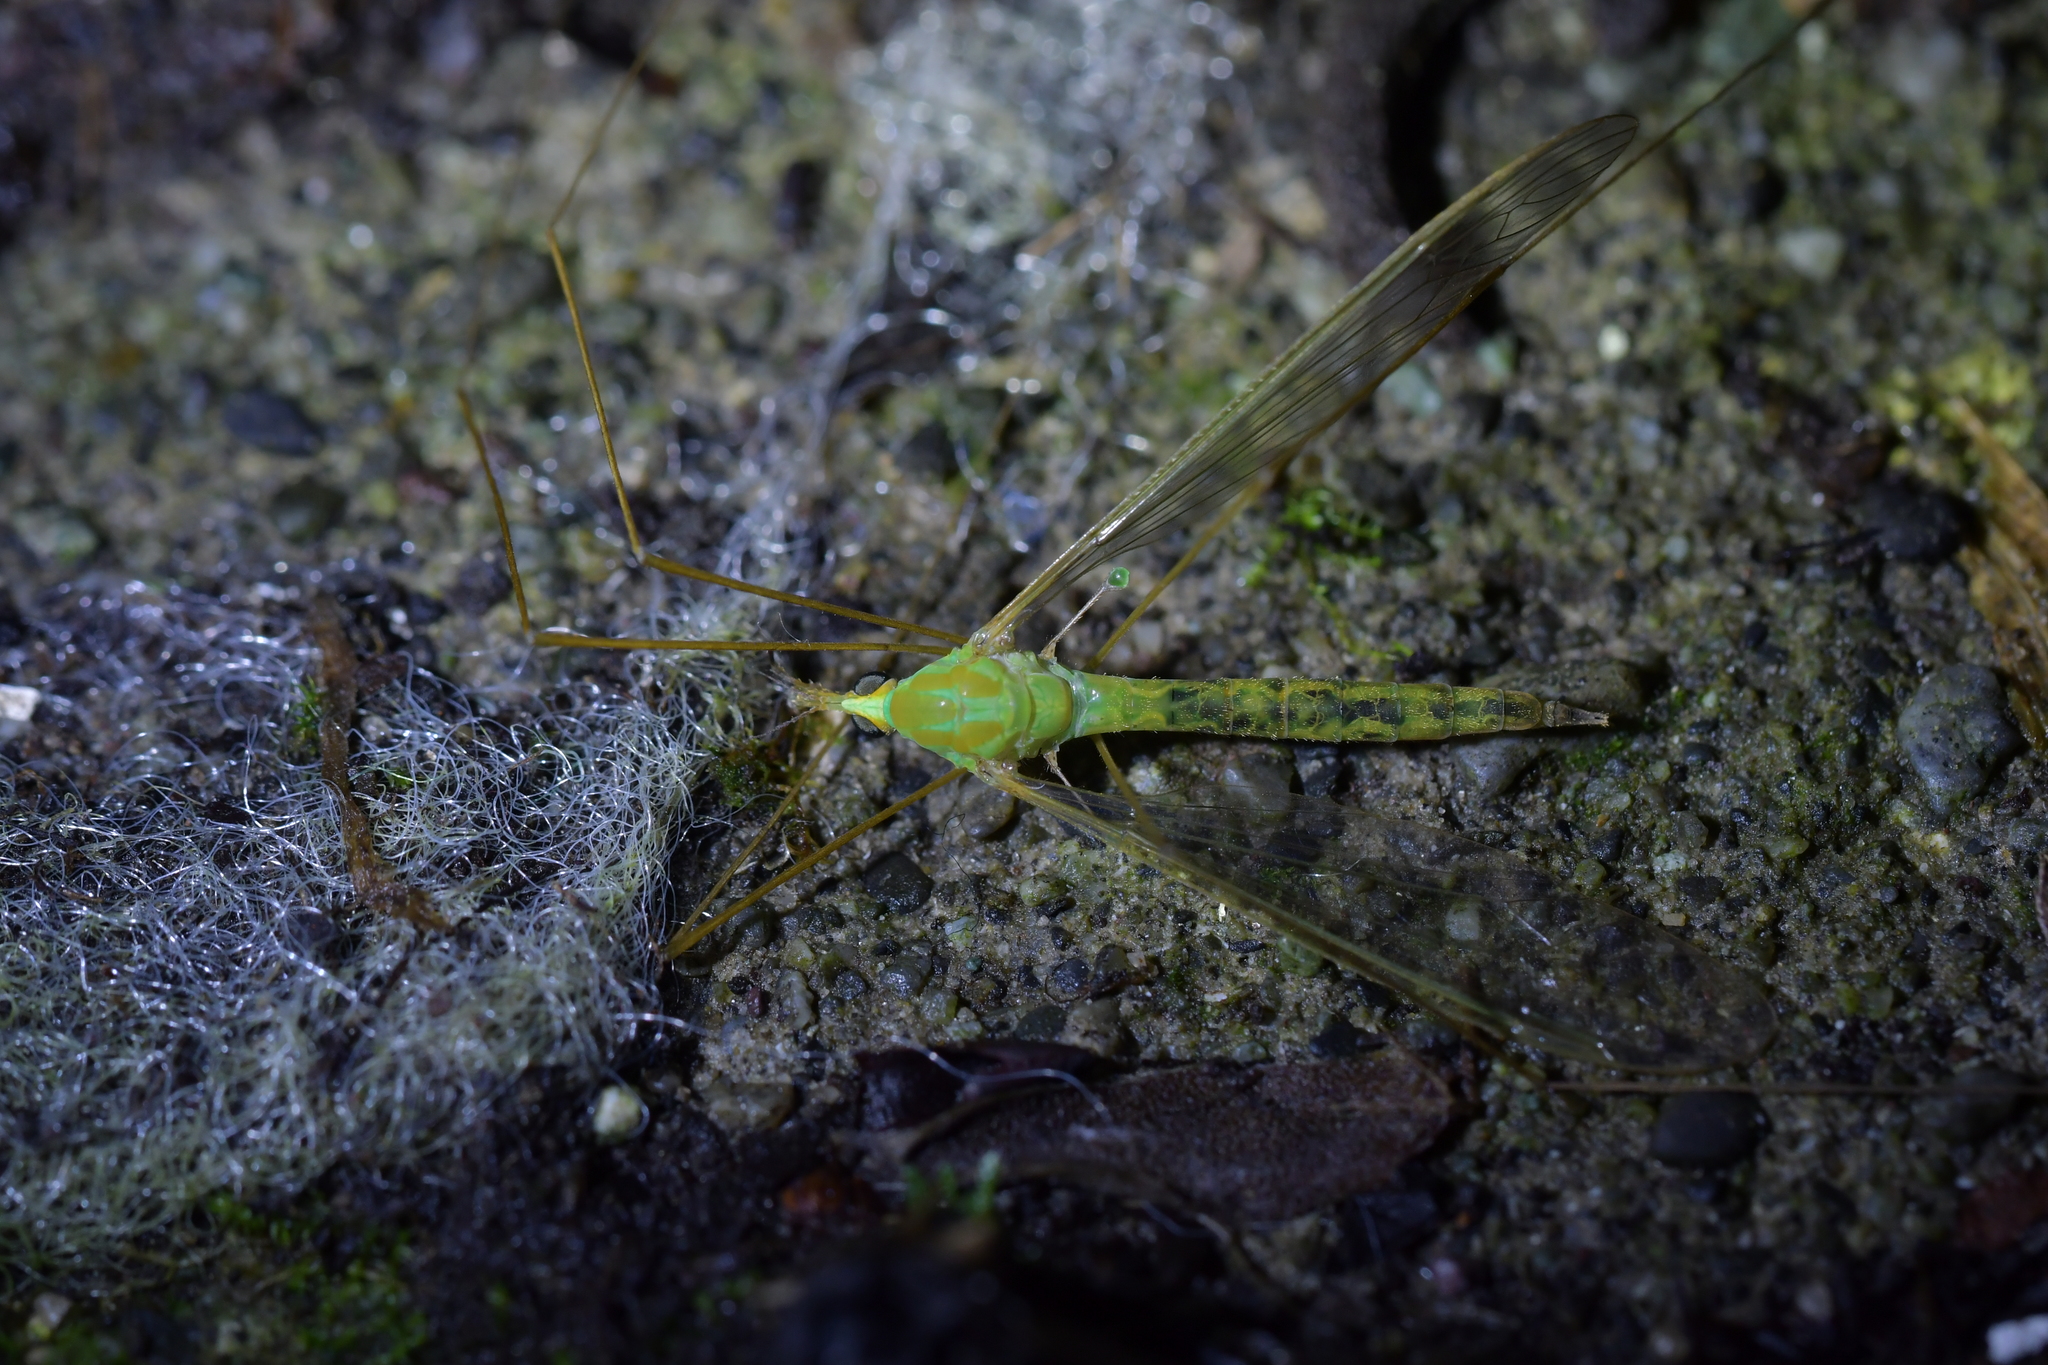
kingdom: Animalia
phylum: Arthropoda
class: Insecta
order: Diptera
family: Tipulidae
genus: Leptotarsus
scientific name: Leptotarsus virescens
